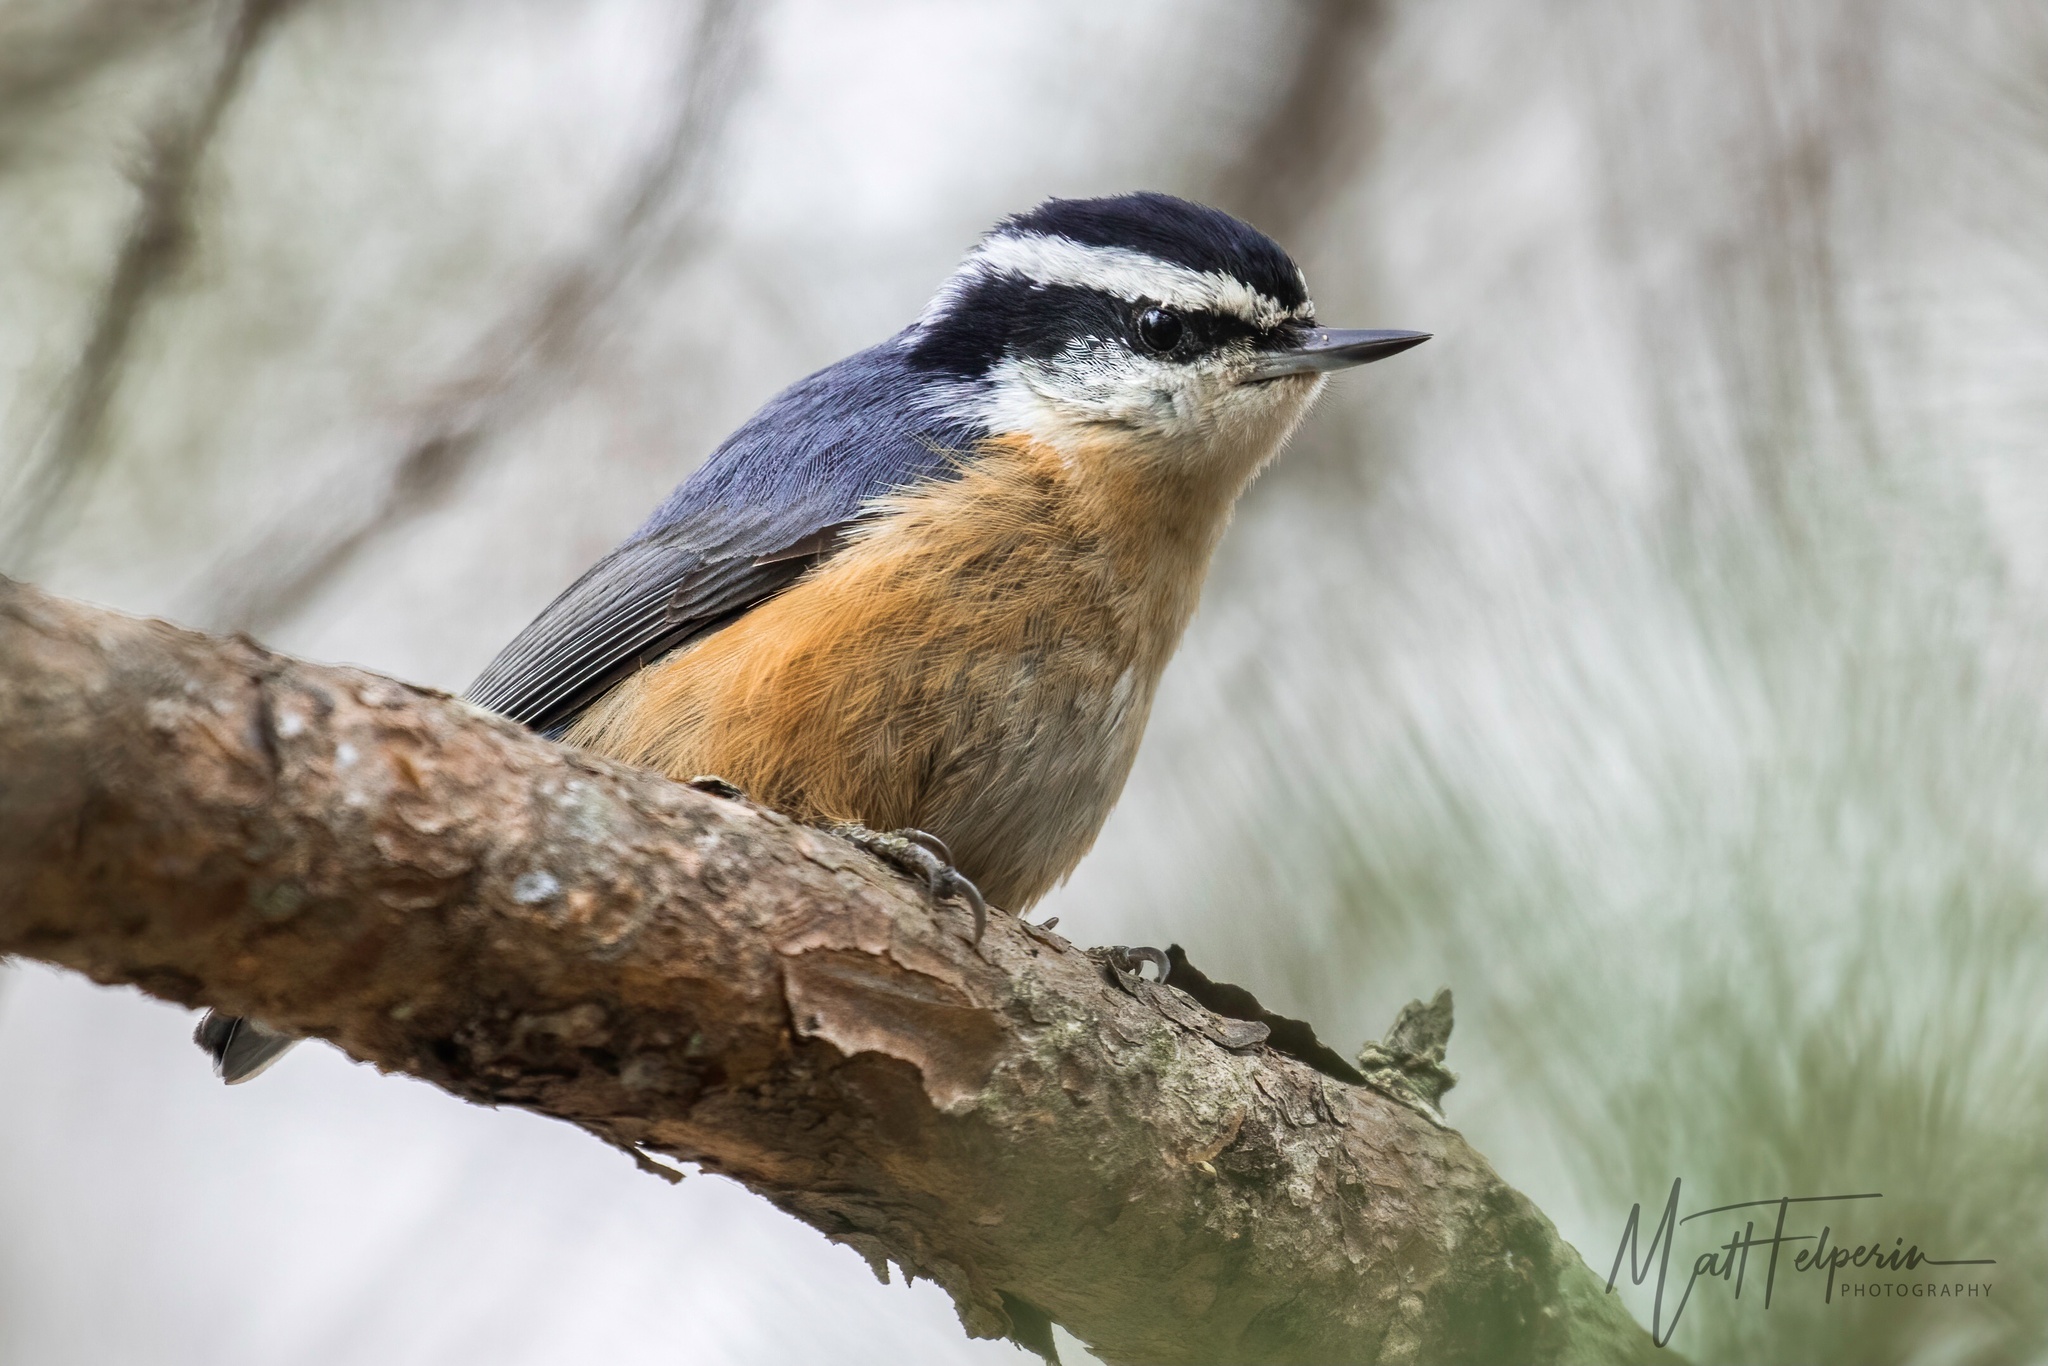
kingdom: Animalia
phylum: Chordata
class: Aves
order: Passeriformes
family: Sittidae
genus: Sitta
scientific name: Sitta canadensis
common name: Red-breasted nuthatch
